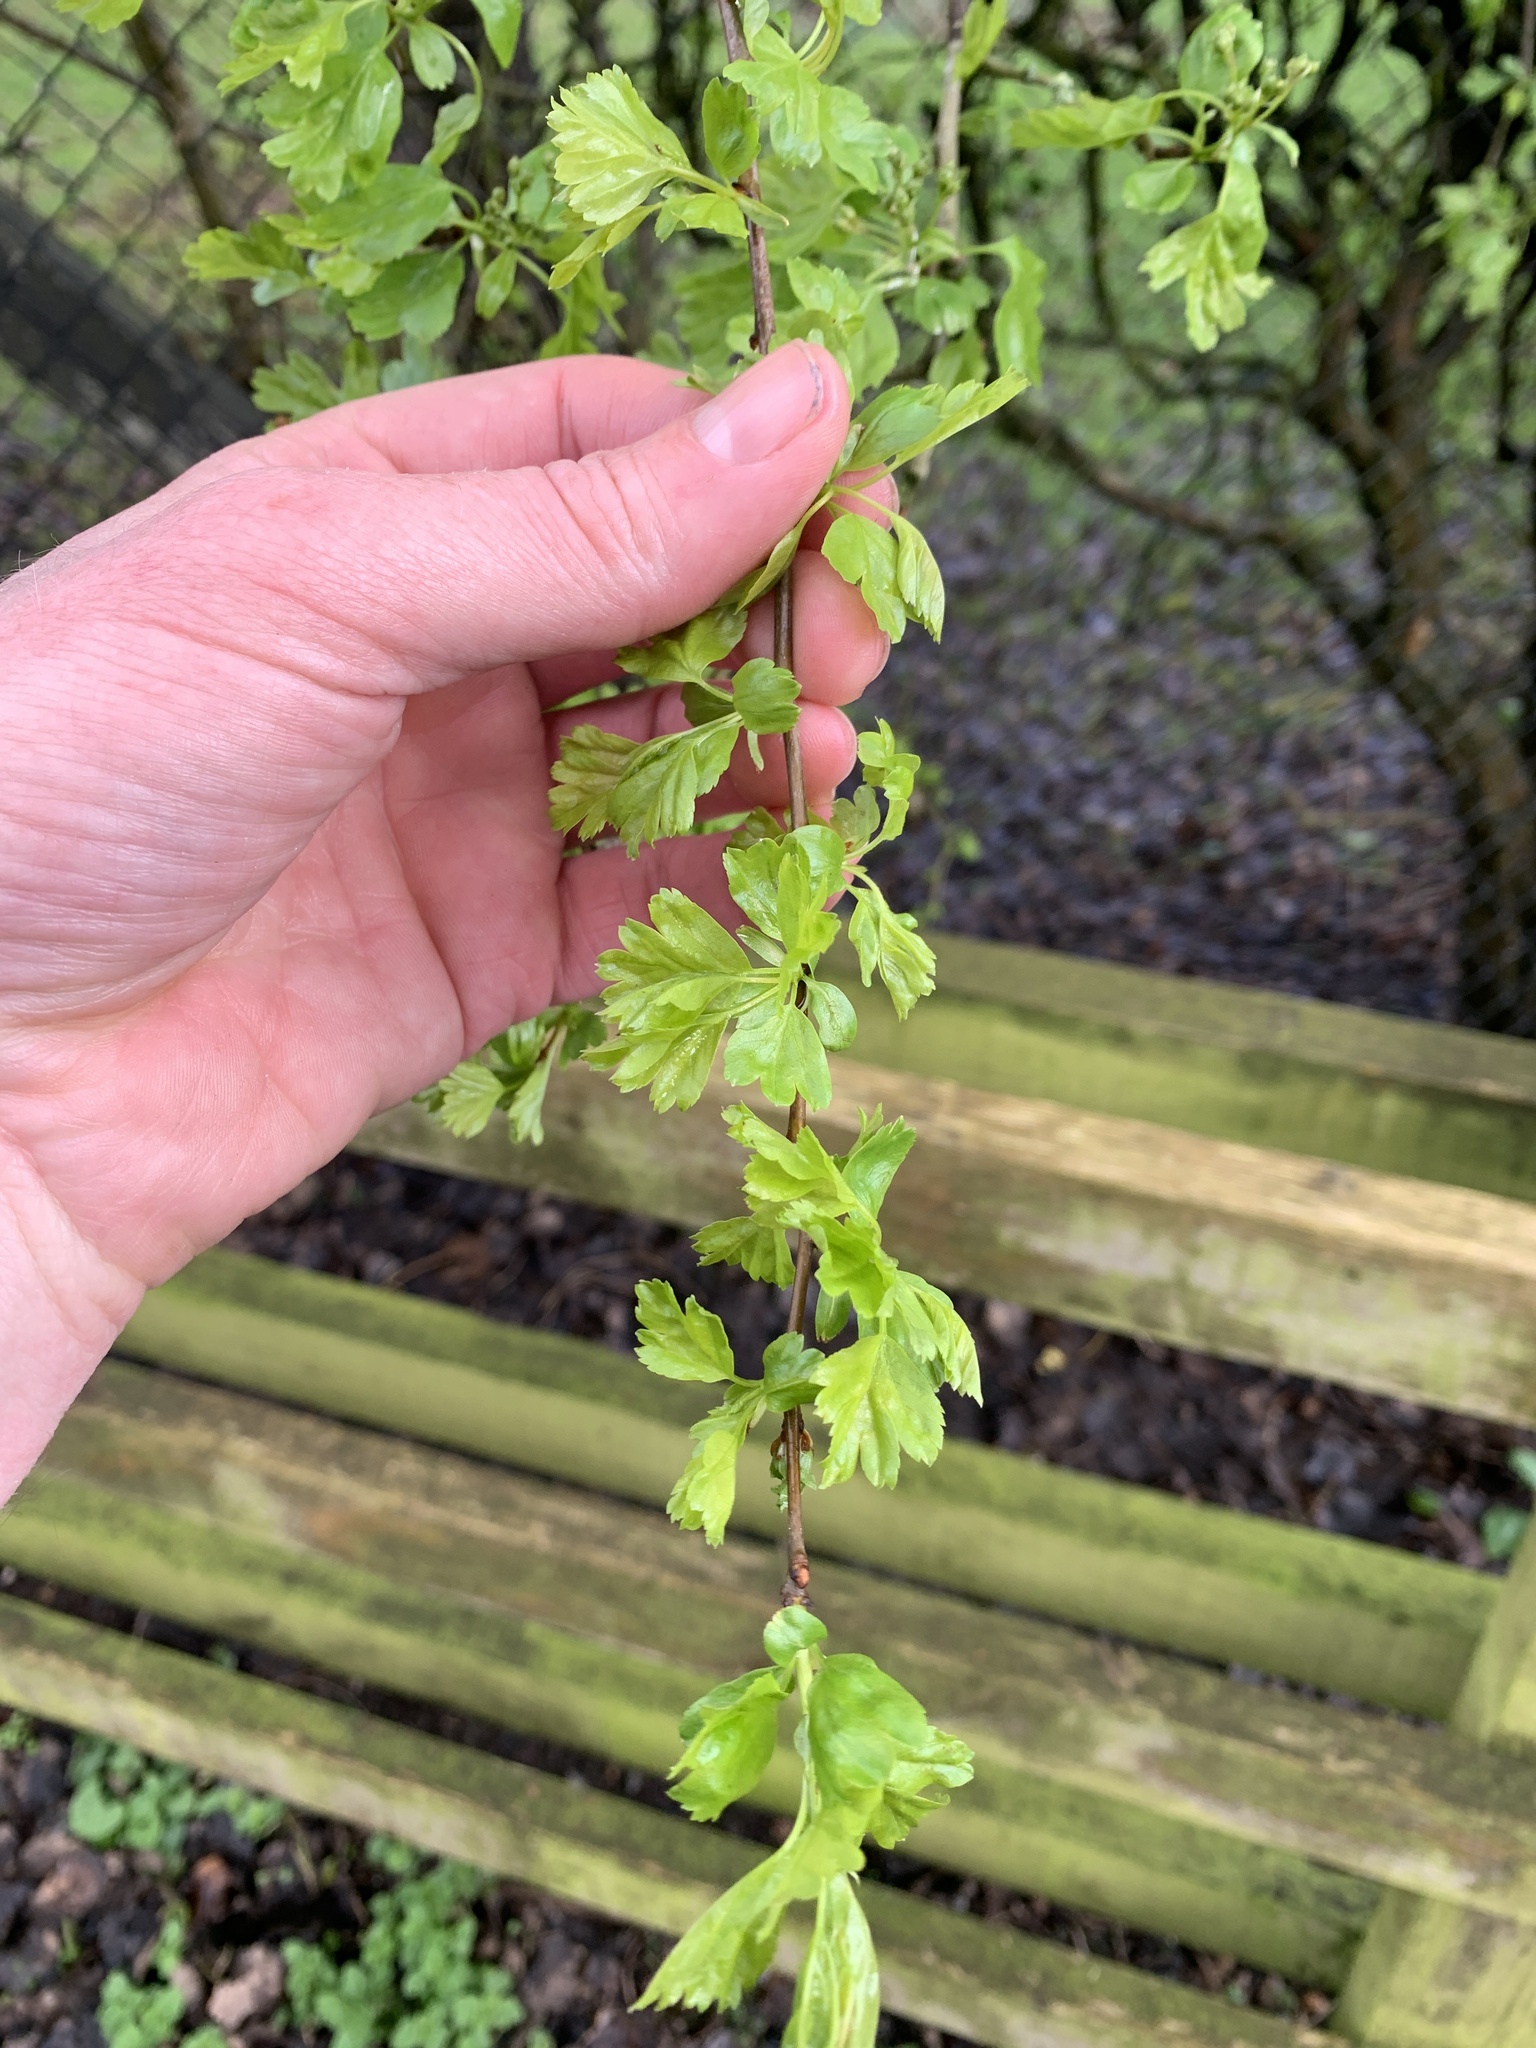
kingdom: Plantae
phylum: Tracheophyta
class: Magnoliopsida
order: Rosales
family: Rosaceae
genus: Crataegus
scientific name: Crataegus monogyna
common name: Hawthorn
